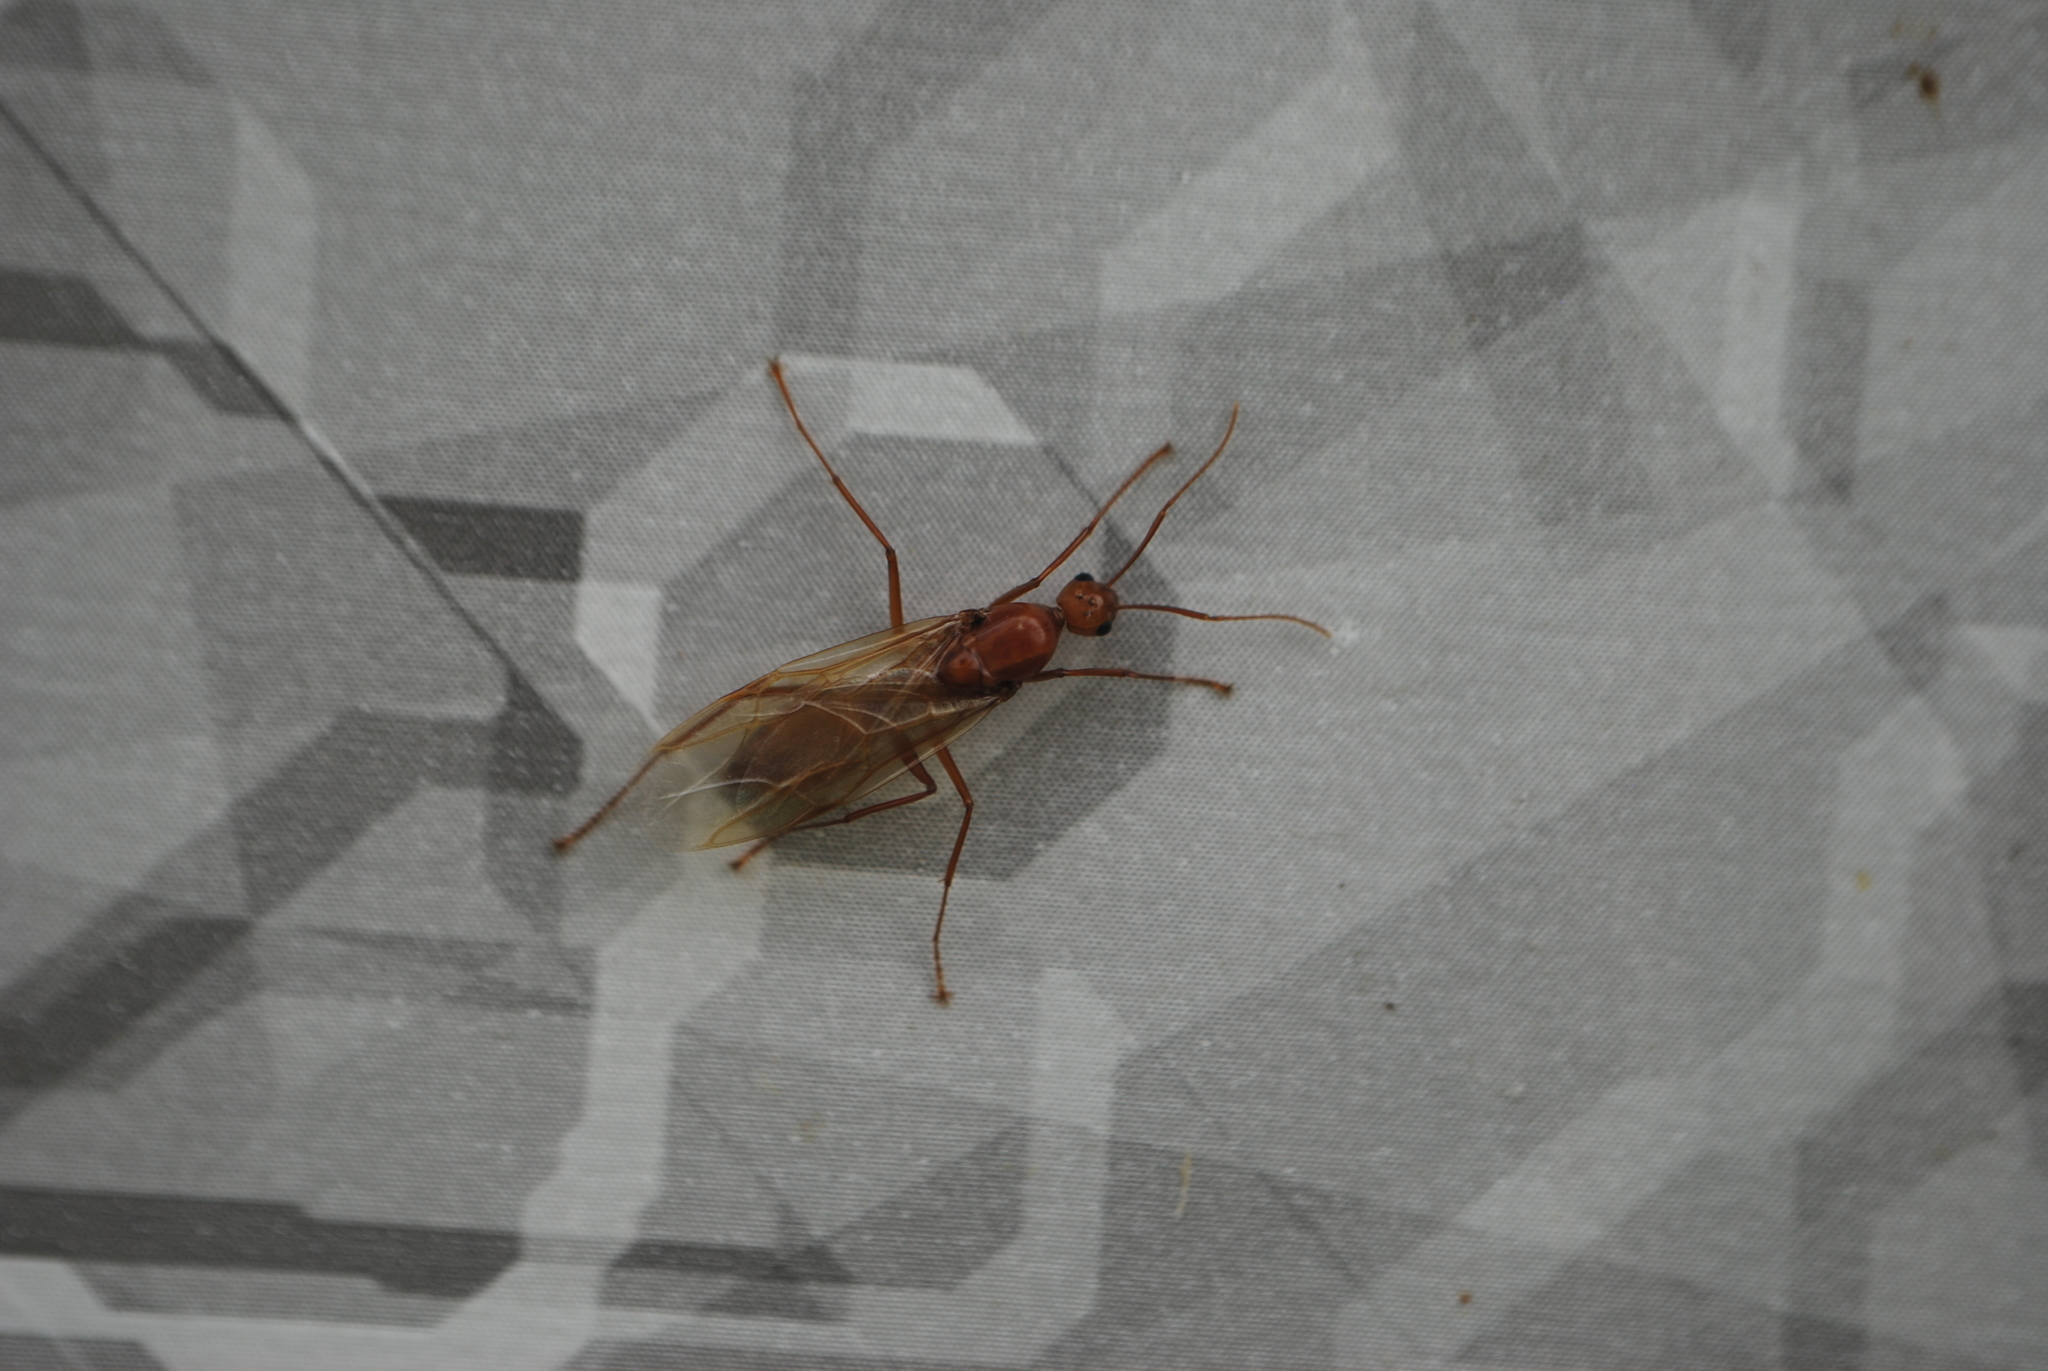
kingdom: Animalia
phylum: Arthropoda
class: Insecta
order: Hymenoptera
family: Formicidae
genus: Camponotus
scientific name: Camponotus castaneus
